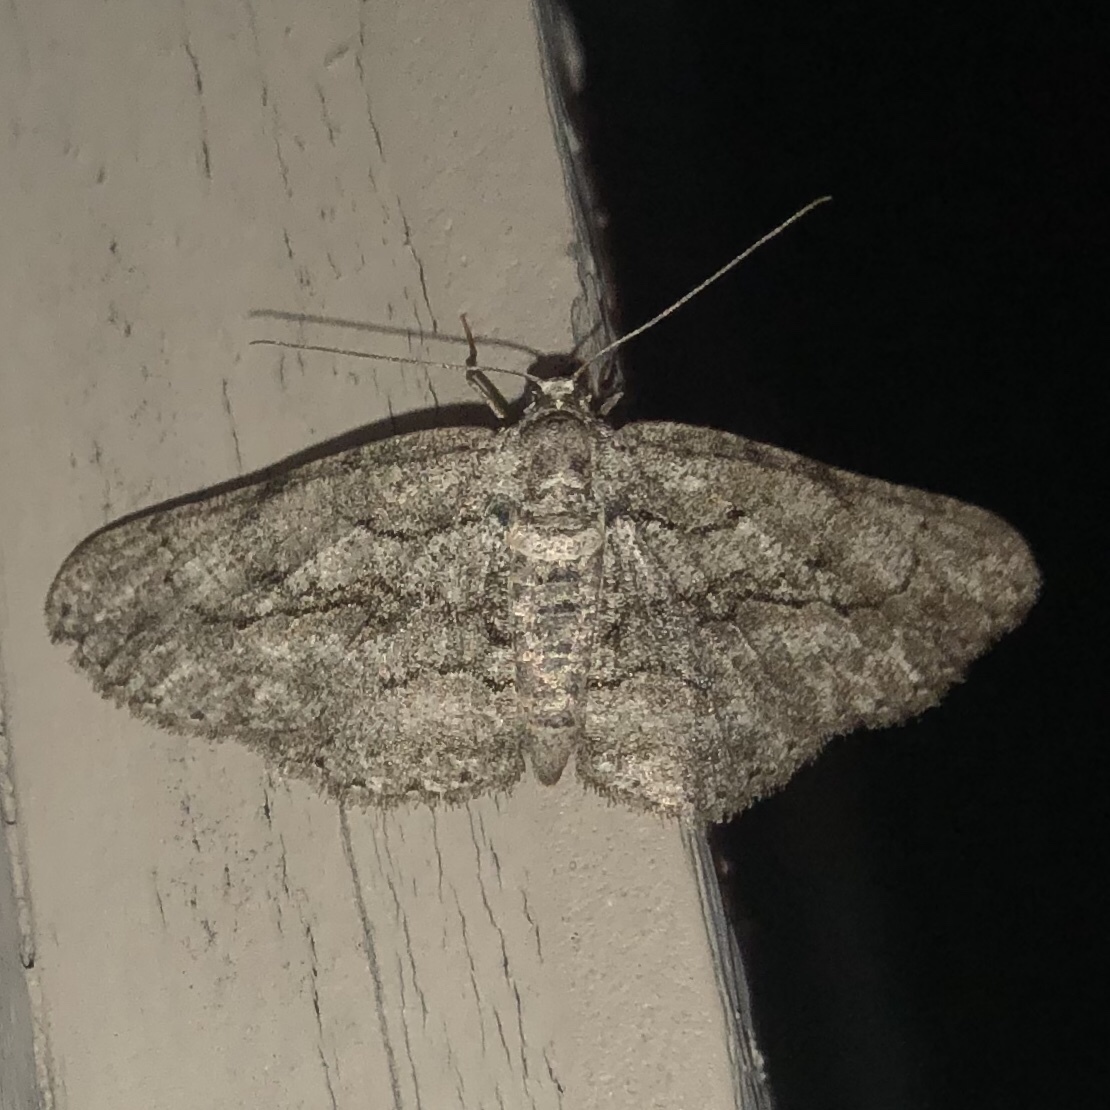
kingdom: Animalia
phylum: Arthropoda
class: Insecta
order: Lepidoptera
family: Geometridae
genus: Anavitrinella
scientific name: Anavitrinella pampinaria
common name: Common gray
